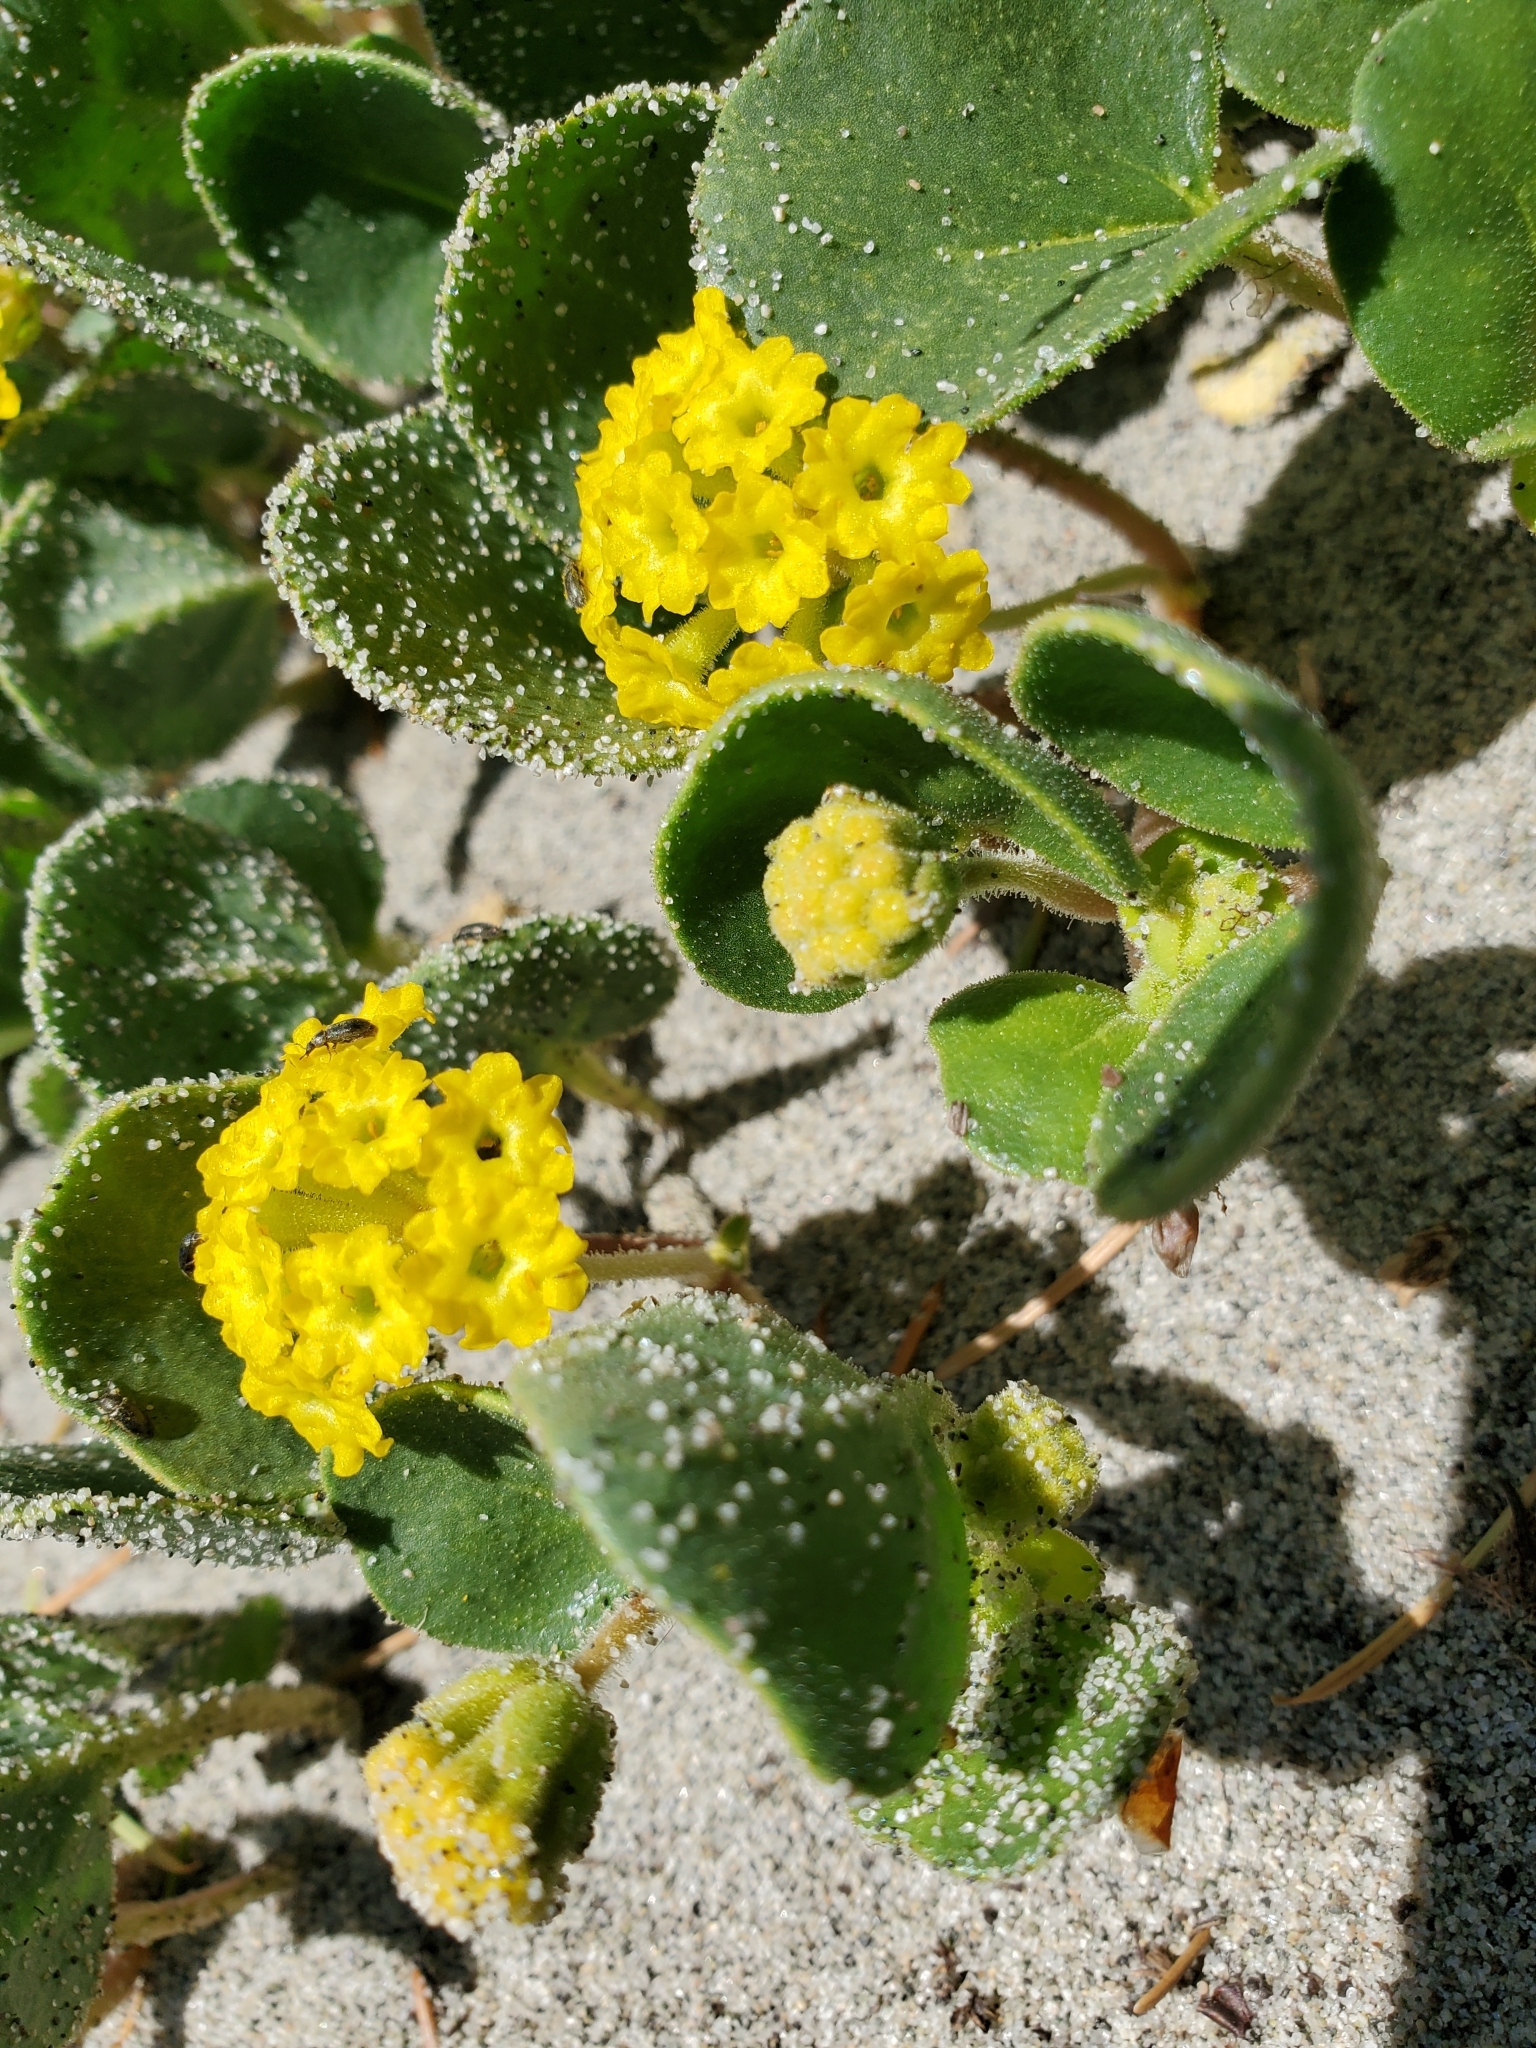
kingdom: Plantae
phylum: Tracheophyta
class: Magnoliopsida
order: Caryophyllales
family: Nyctaginaceae
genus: Abronia
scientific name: Abronia latifolia
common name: Yellow sand-verbena
